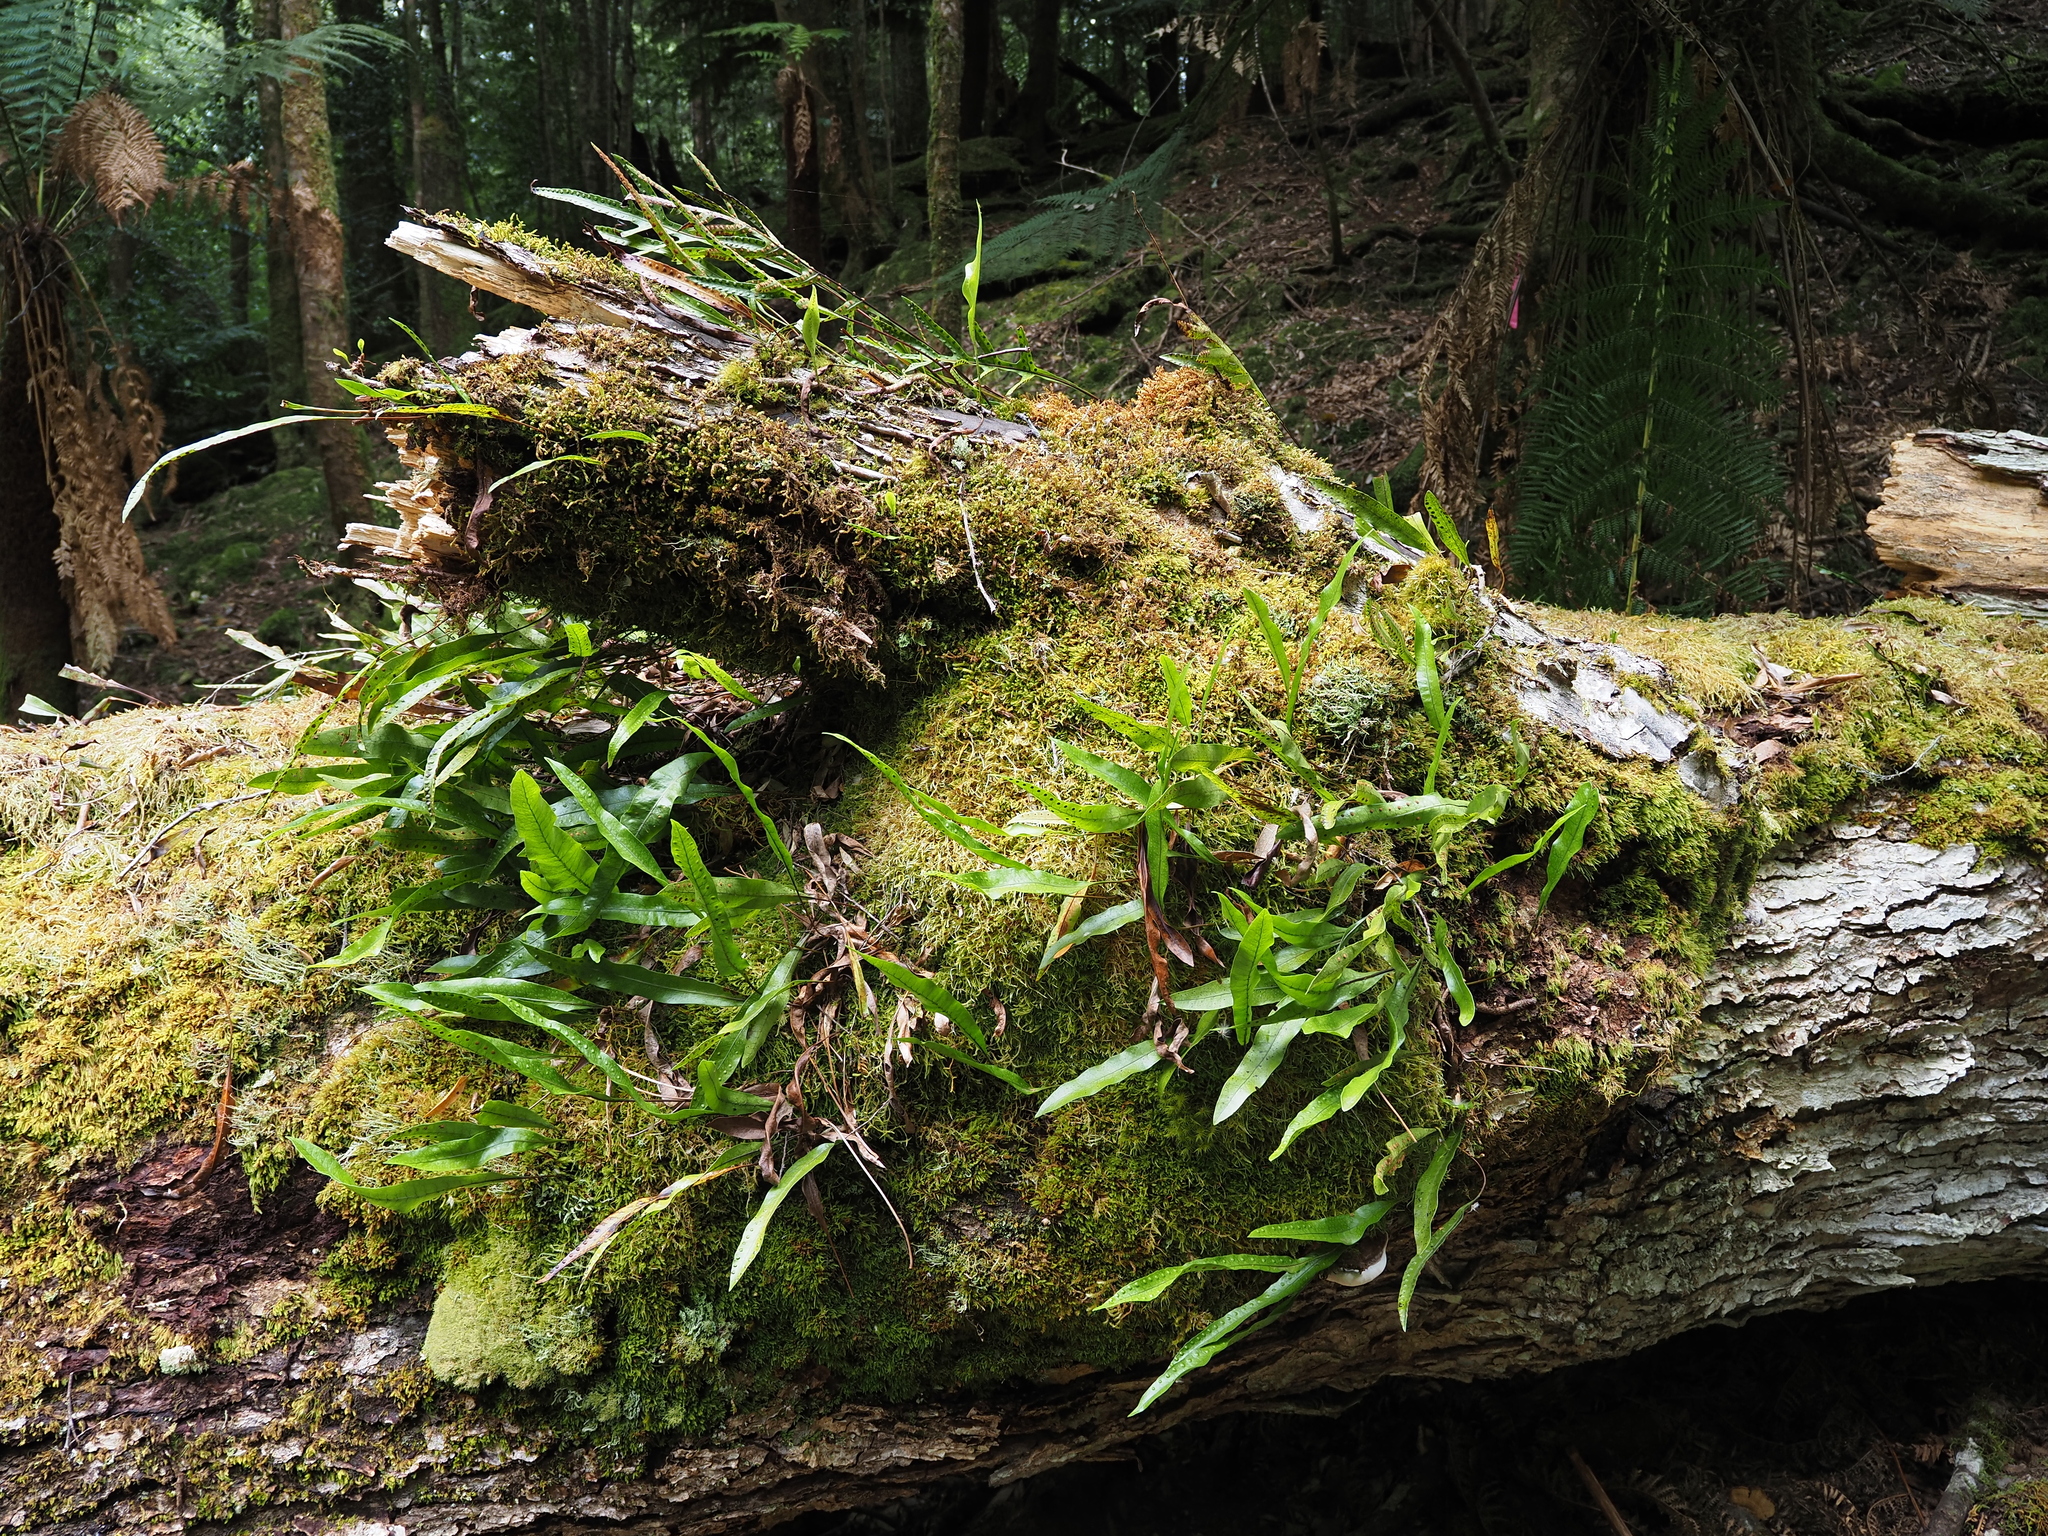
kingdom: Plantae
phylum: Tracheophyta
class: Polypodiopsida
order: Polypodiales
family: Polypodiaceae
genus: Lecanopteris
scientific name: Lecanopteris pustulata
